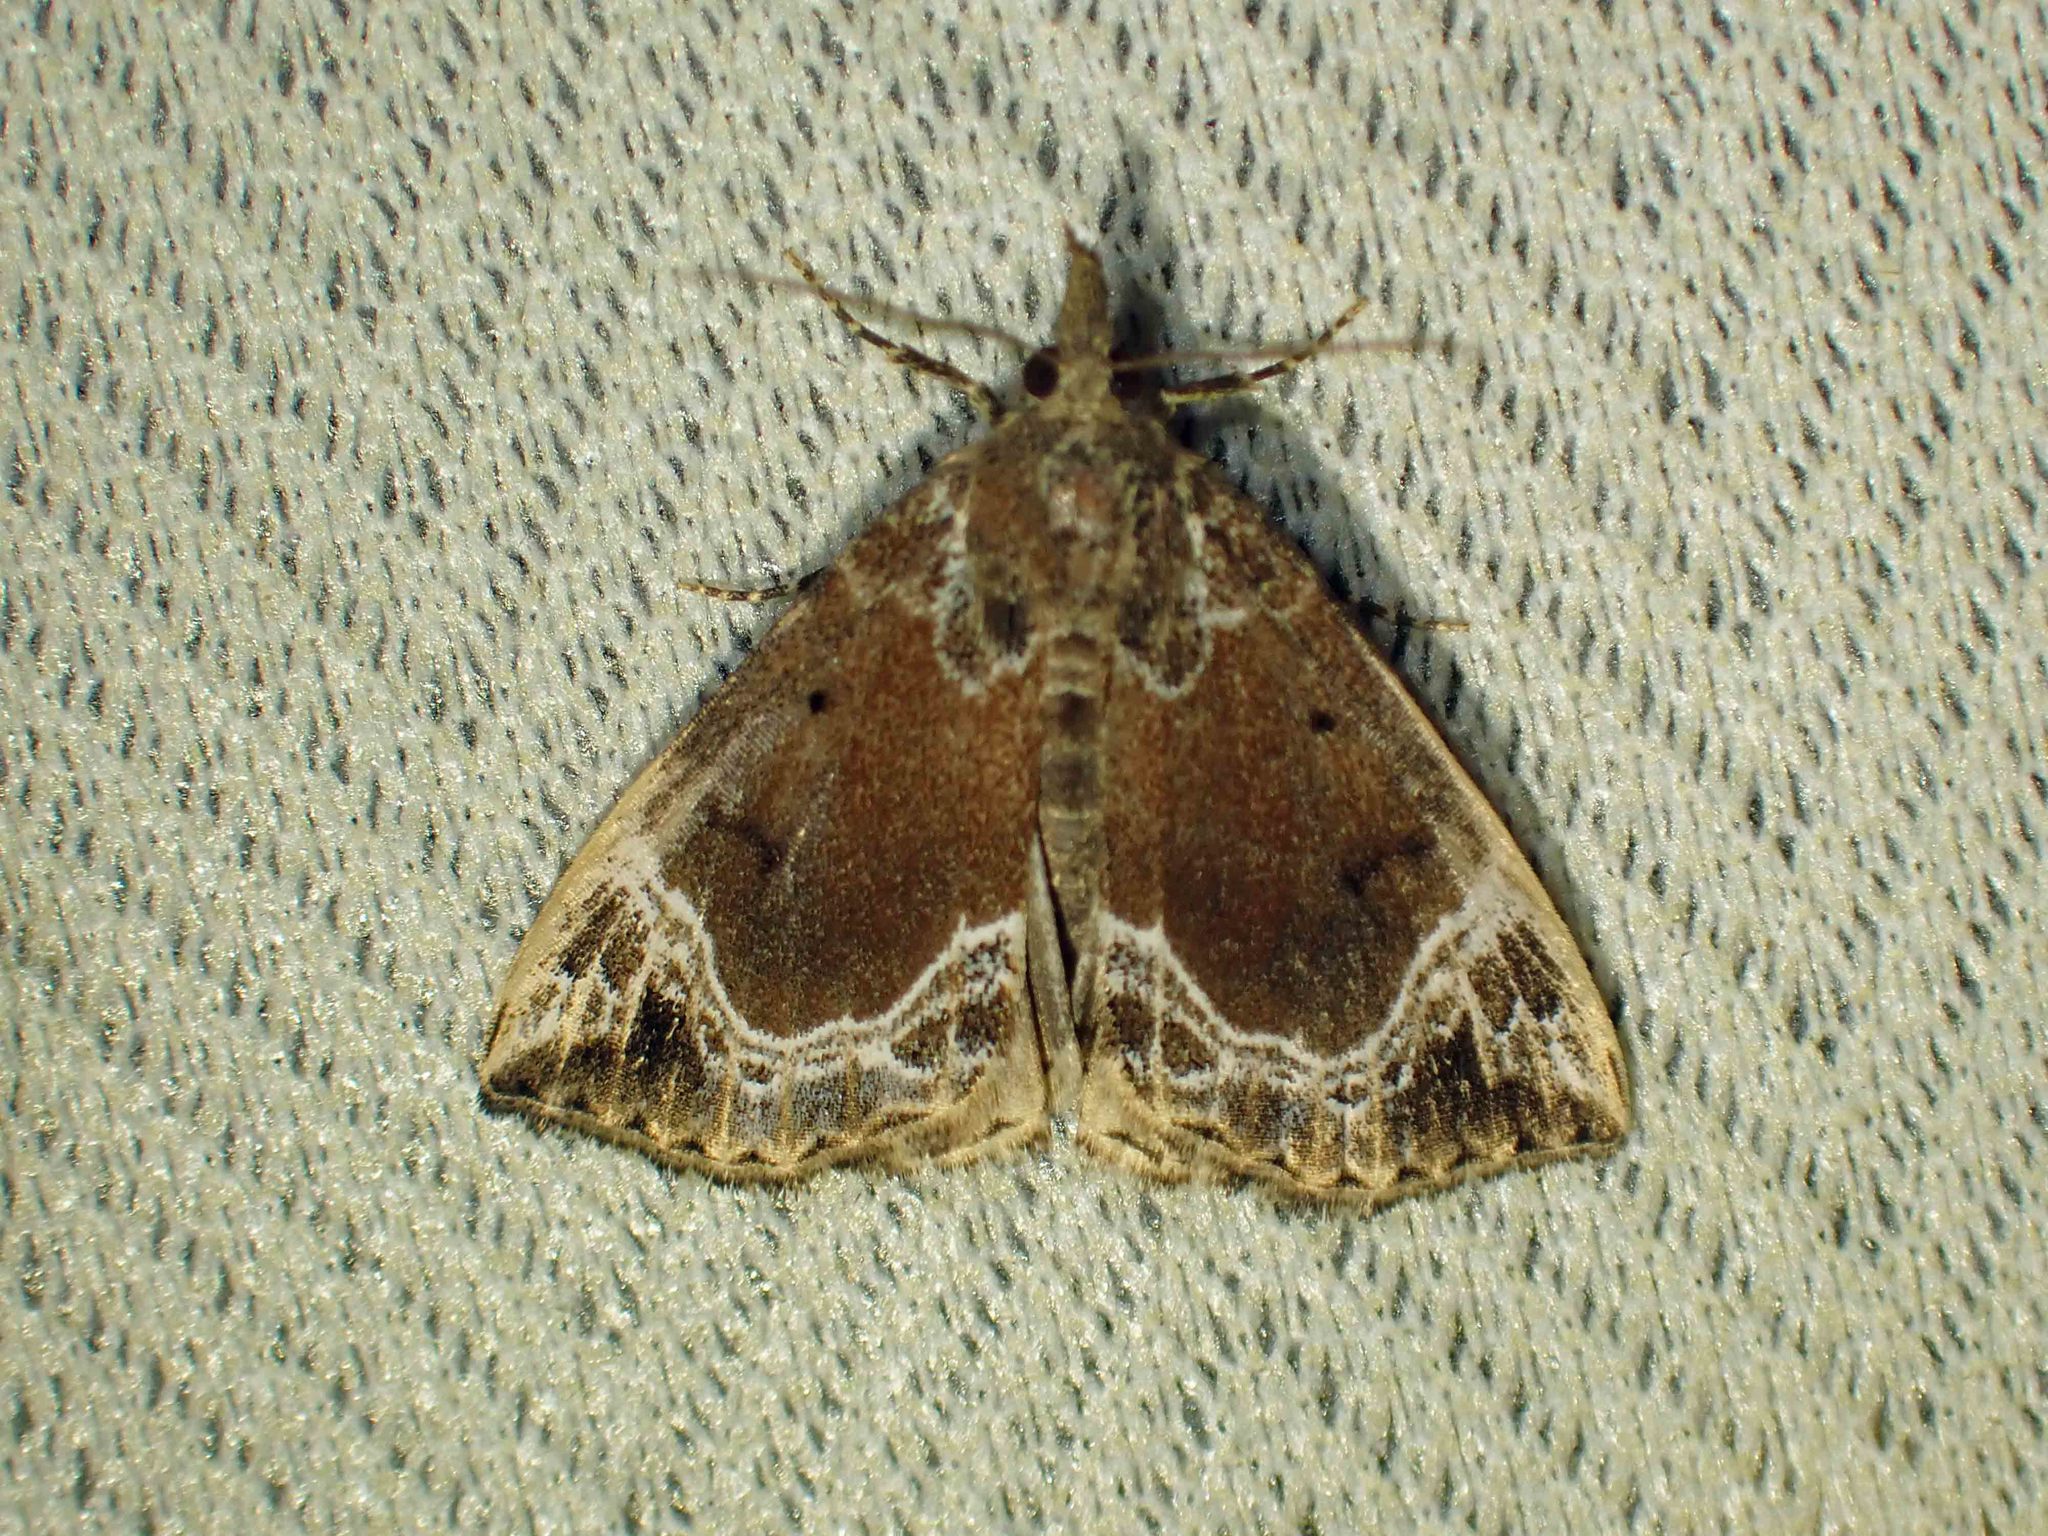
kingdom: Animalia
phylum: Arthropoda
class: Insecta
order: Lepidoptera
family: Erebidae
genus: Hypena
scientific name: Hypena abalienalis
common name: White-lined snout
